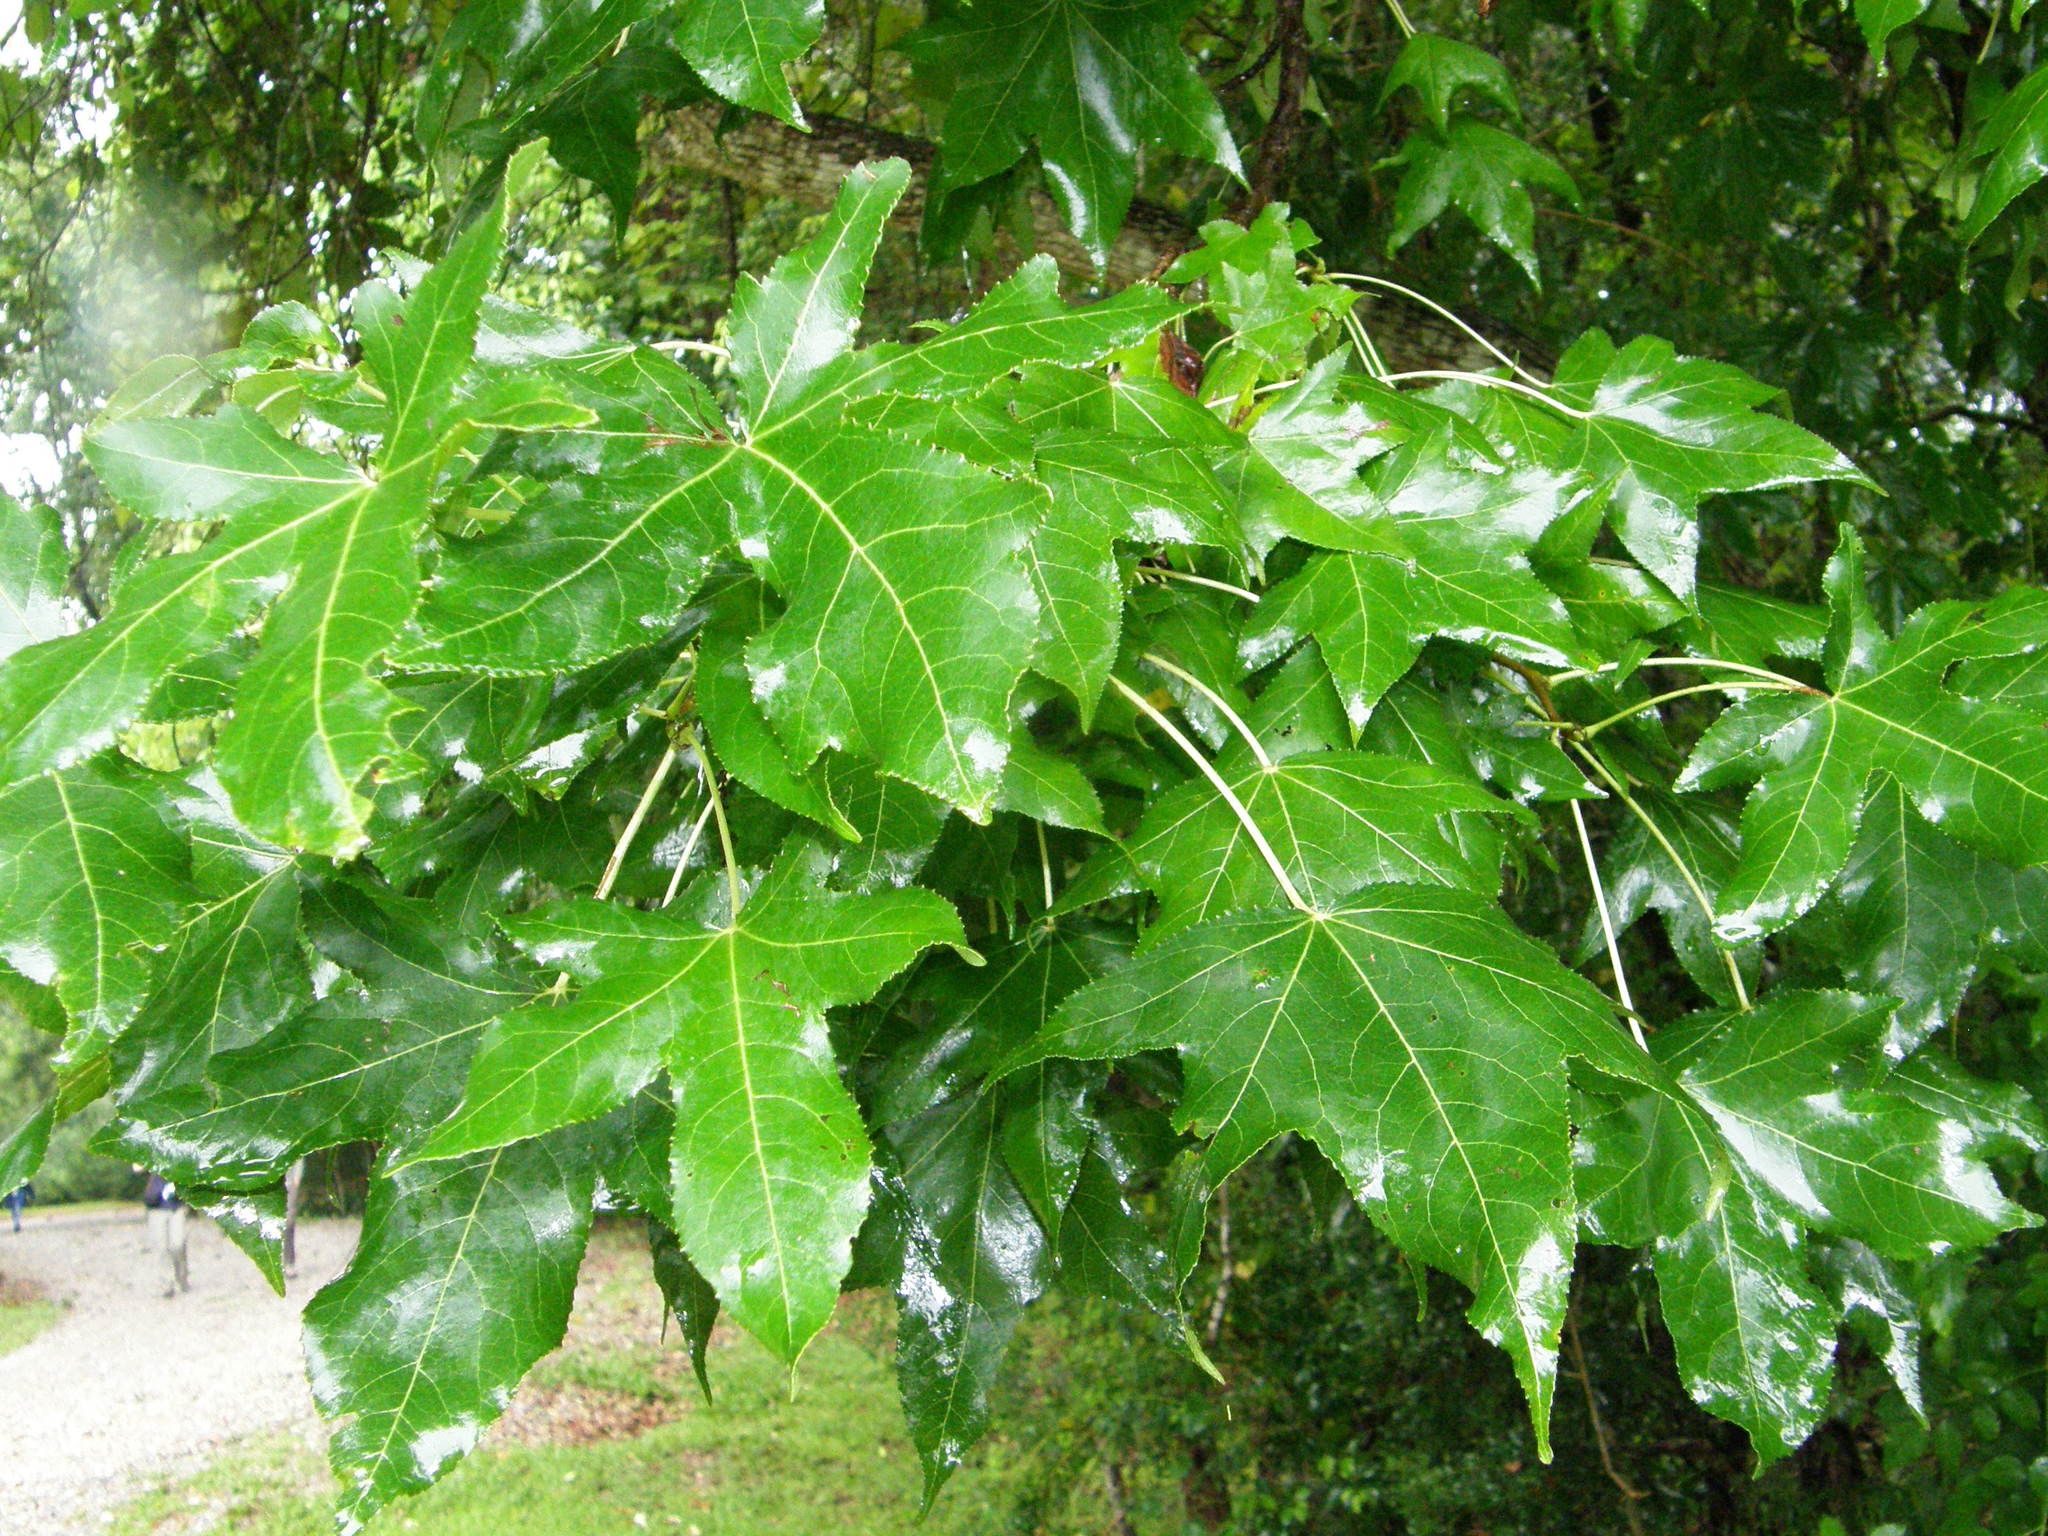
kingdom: Plantae
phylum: Tracheophyta
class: Magnoliopsida
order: Saxifragales
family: Altingiaceae
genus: Liquidambar
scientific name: Liquidambar styraciflua
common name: Sweet gum
